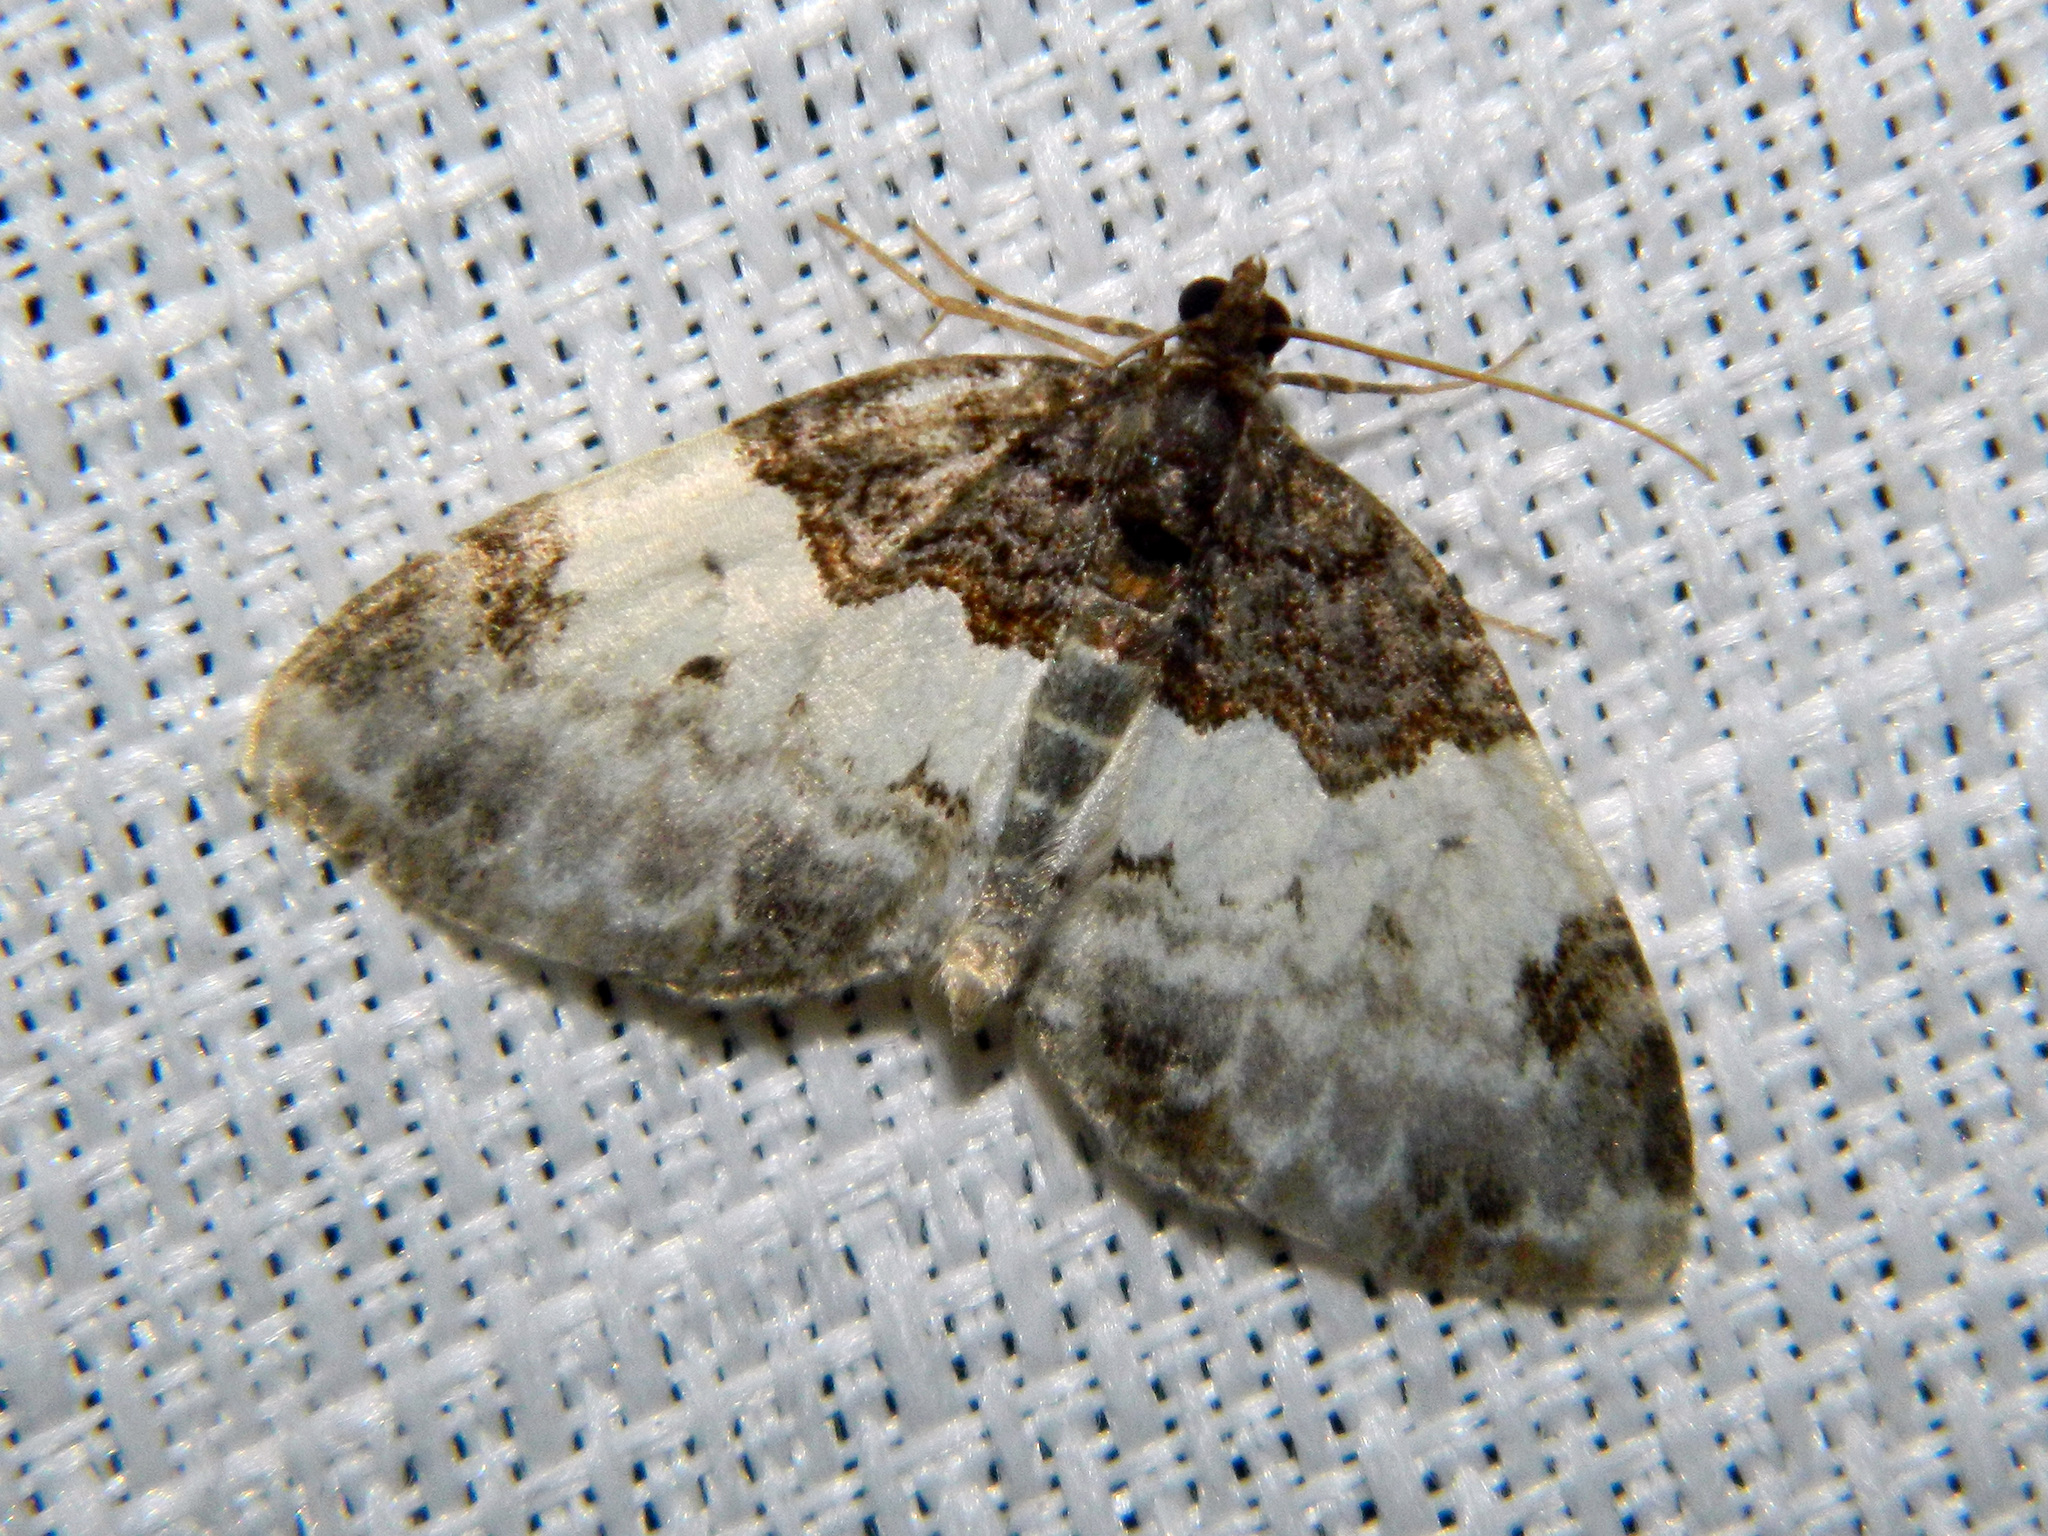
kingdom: Animalia
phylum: Arthropoda
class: Insecta
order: Lepidoptera
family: Geometridae
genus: Mesoleuca
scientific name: Mesoleuca ruficillata
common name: White-ribboned carpet moth
